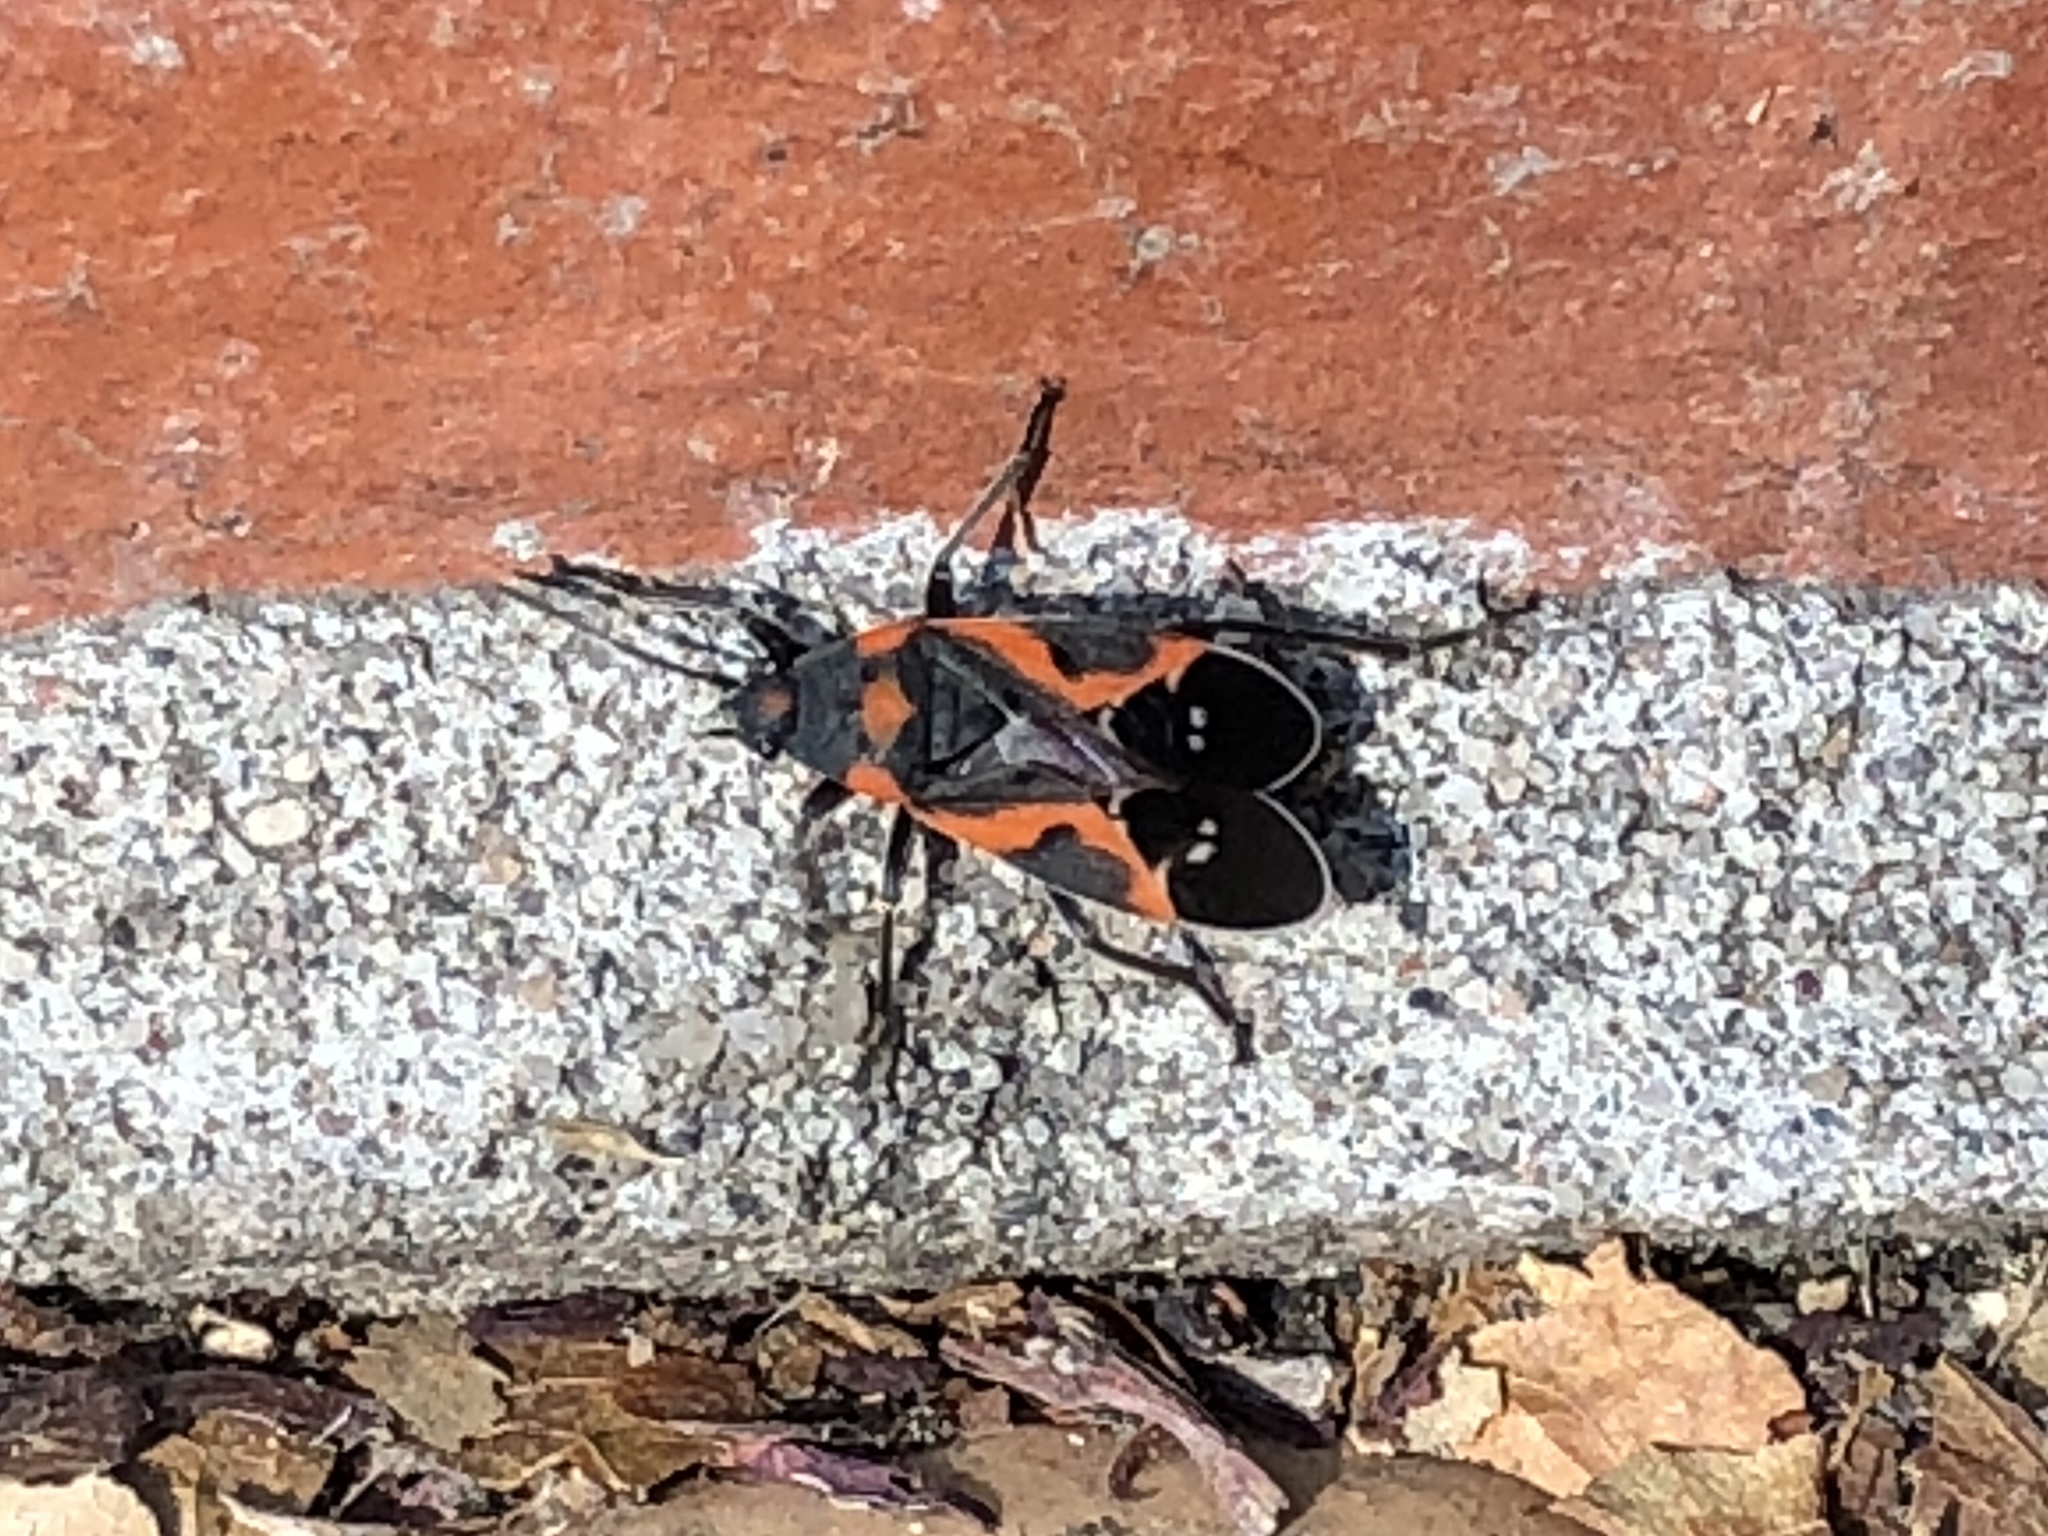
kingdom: Animalia
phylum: Arthropoda
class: Insecta
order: Hemiptera
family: Lygaeidae
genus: Lygaeus
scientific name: Lygaeus kalmii
